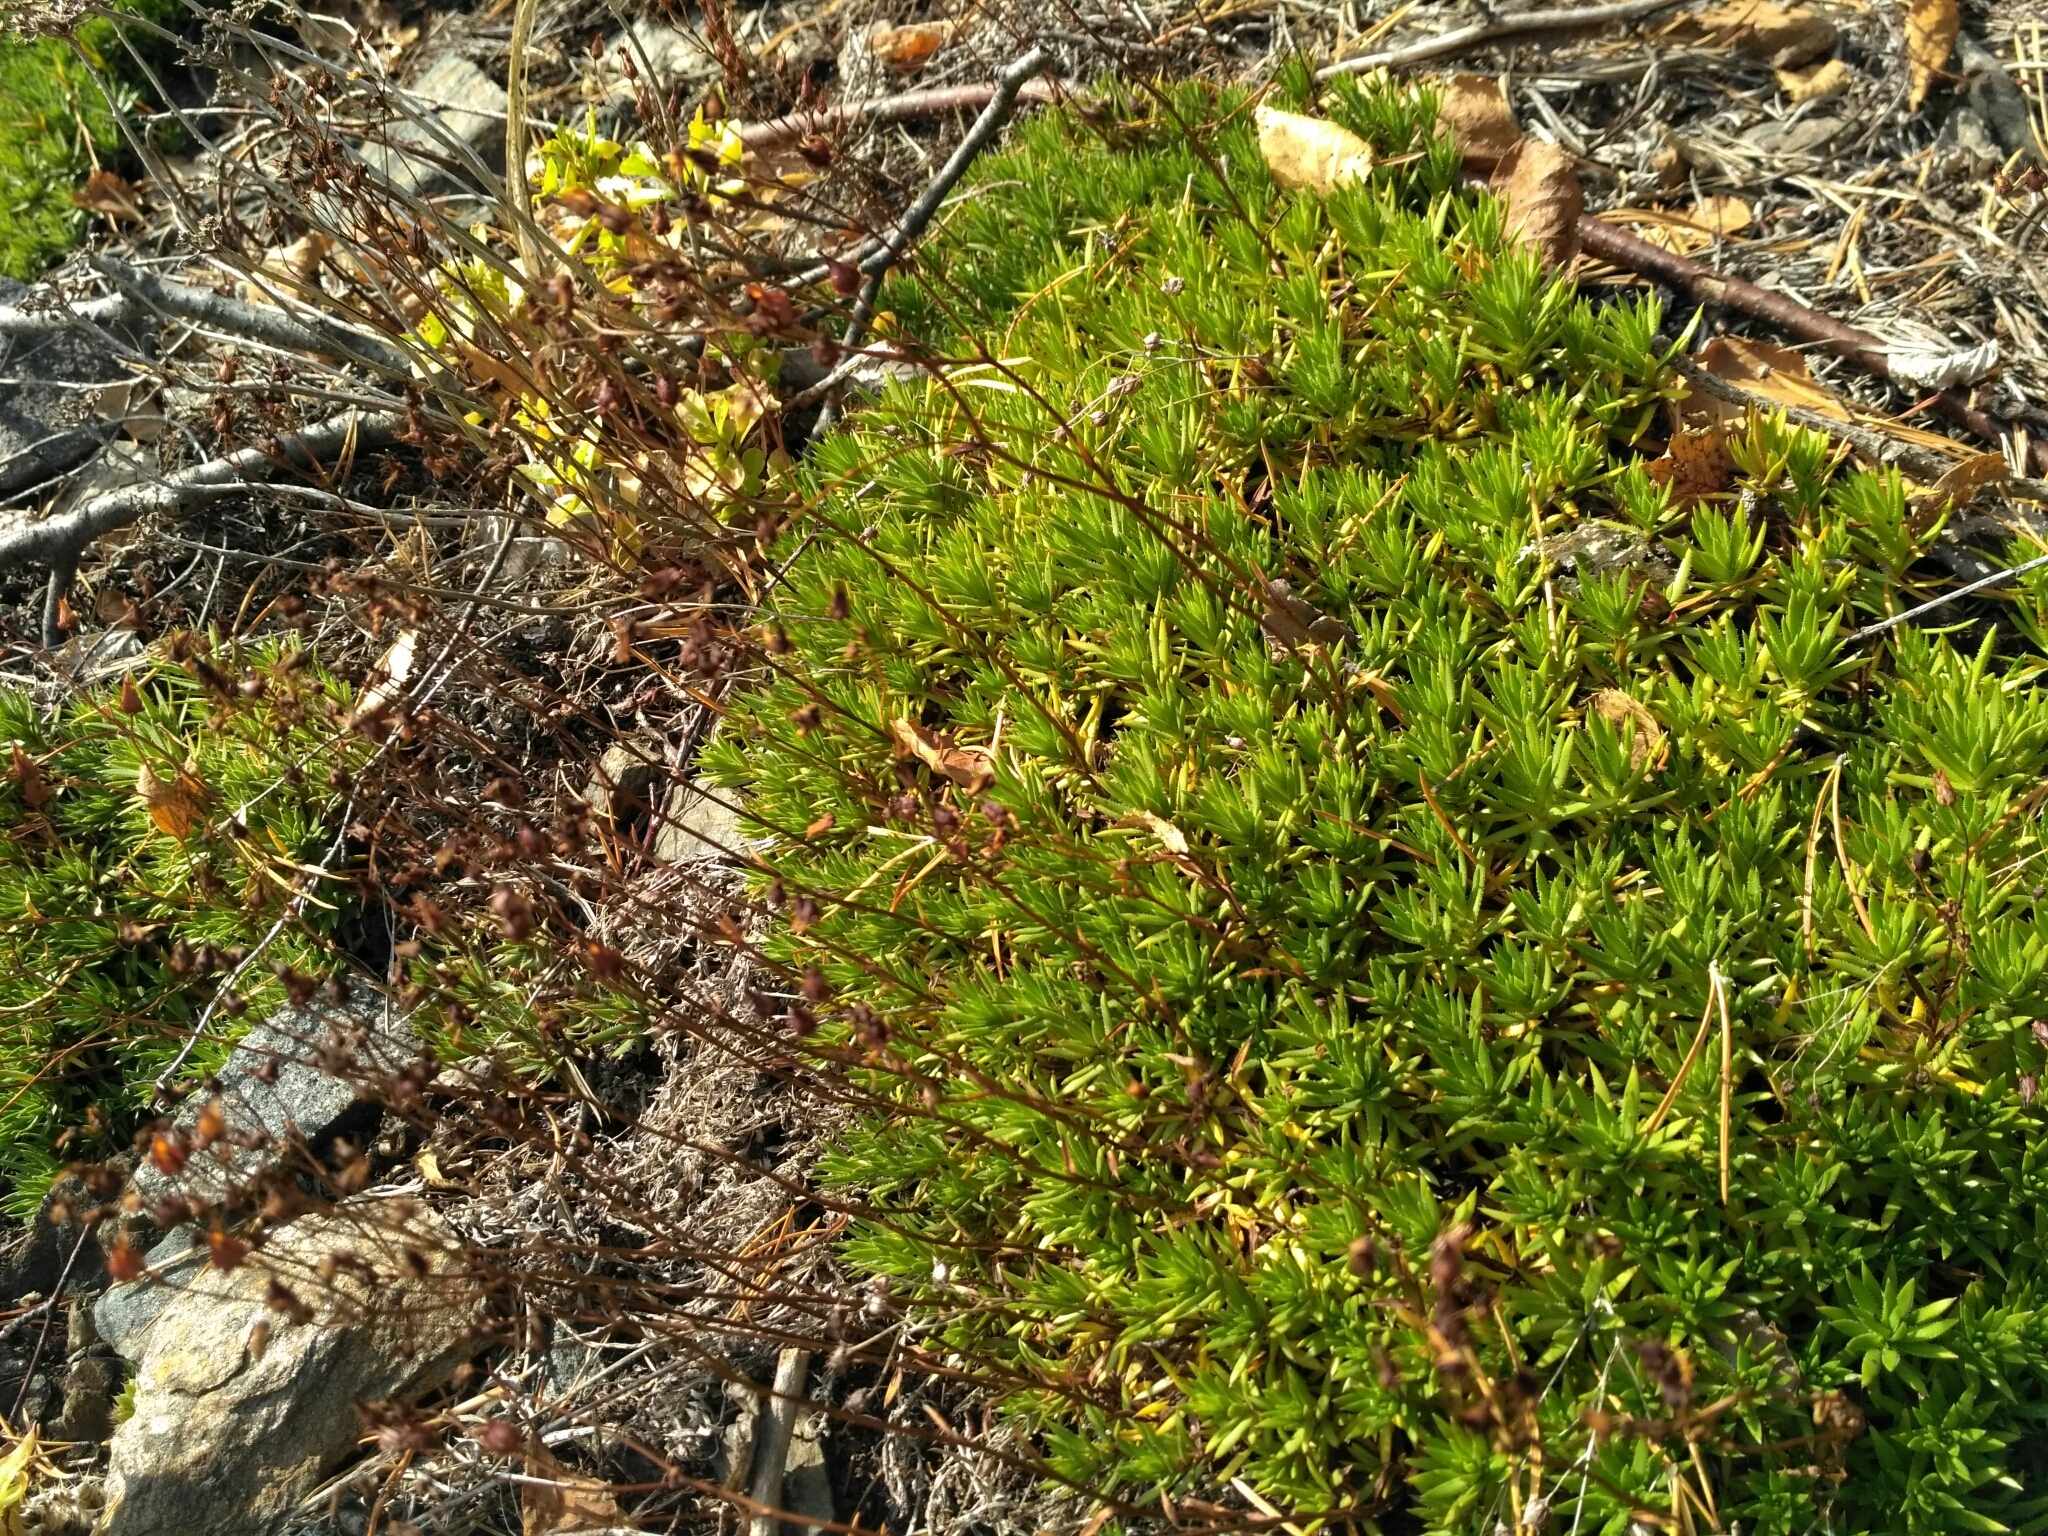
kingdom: Plantae
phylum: Tracheophyta
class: Magnoliopsida
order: Saxifragales
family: Saxifragaceae
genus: Saxifraga
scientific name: Saxifraga
